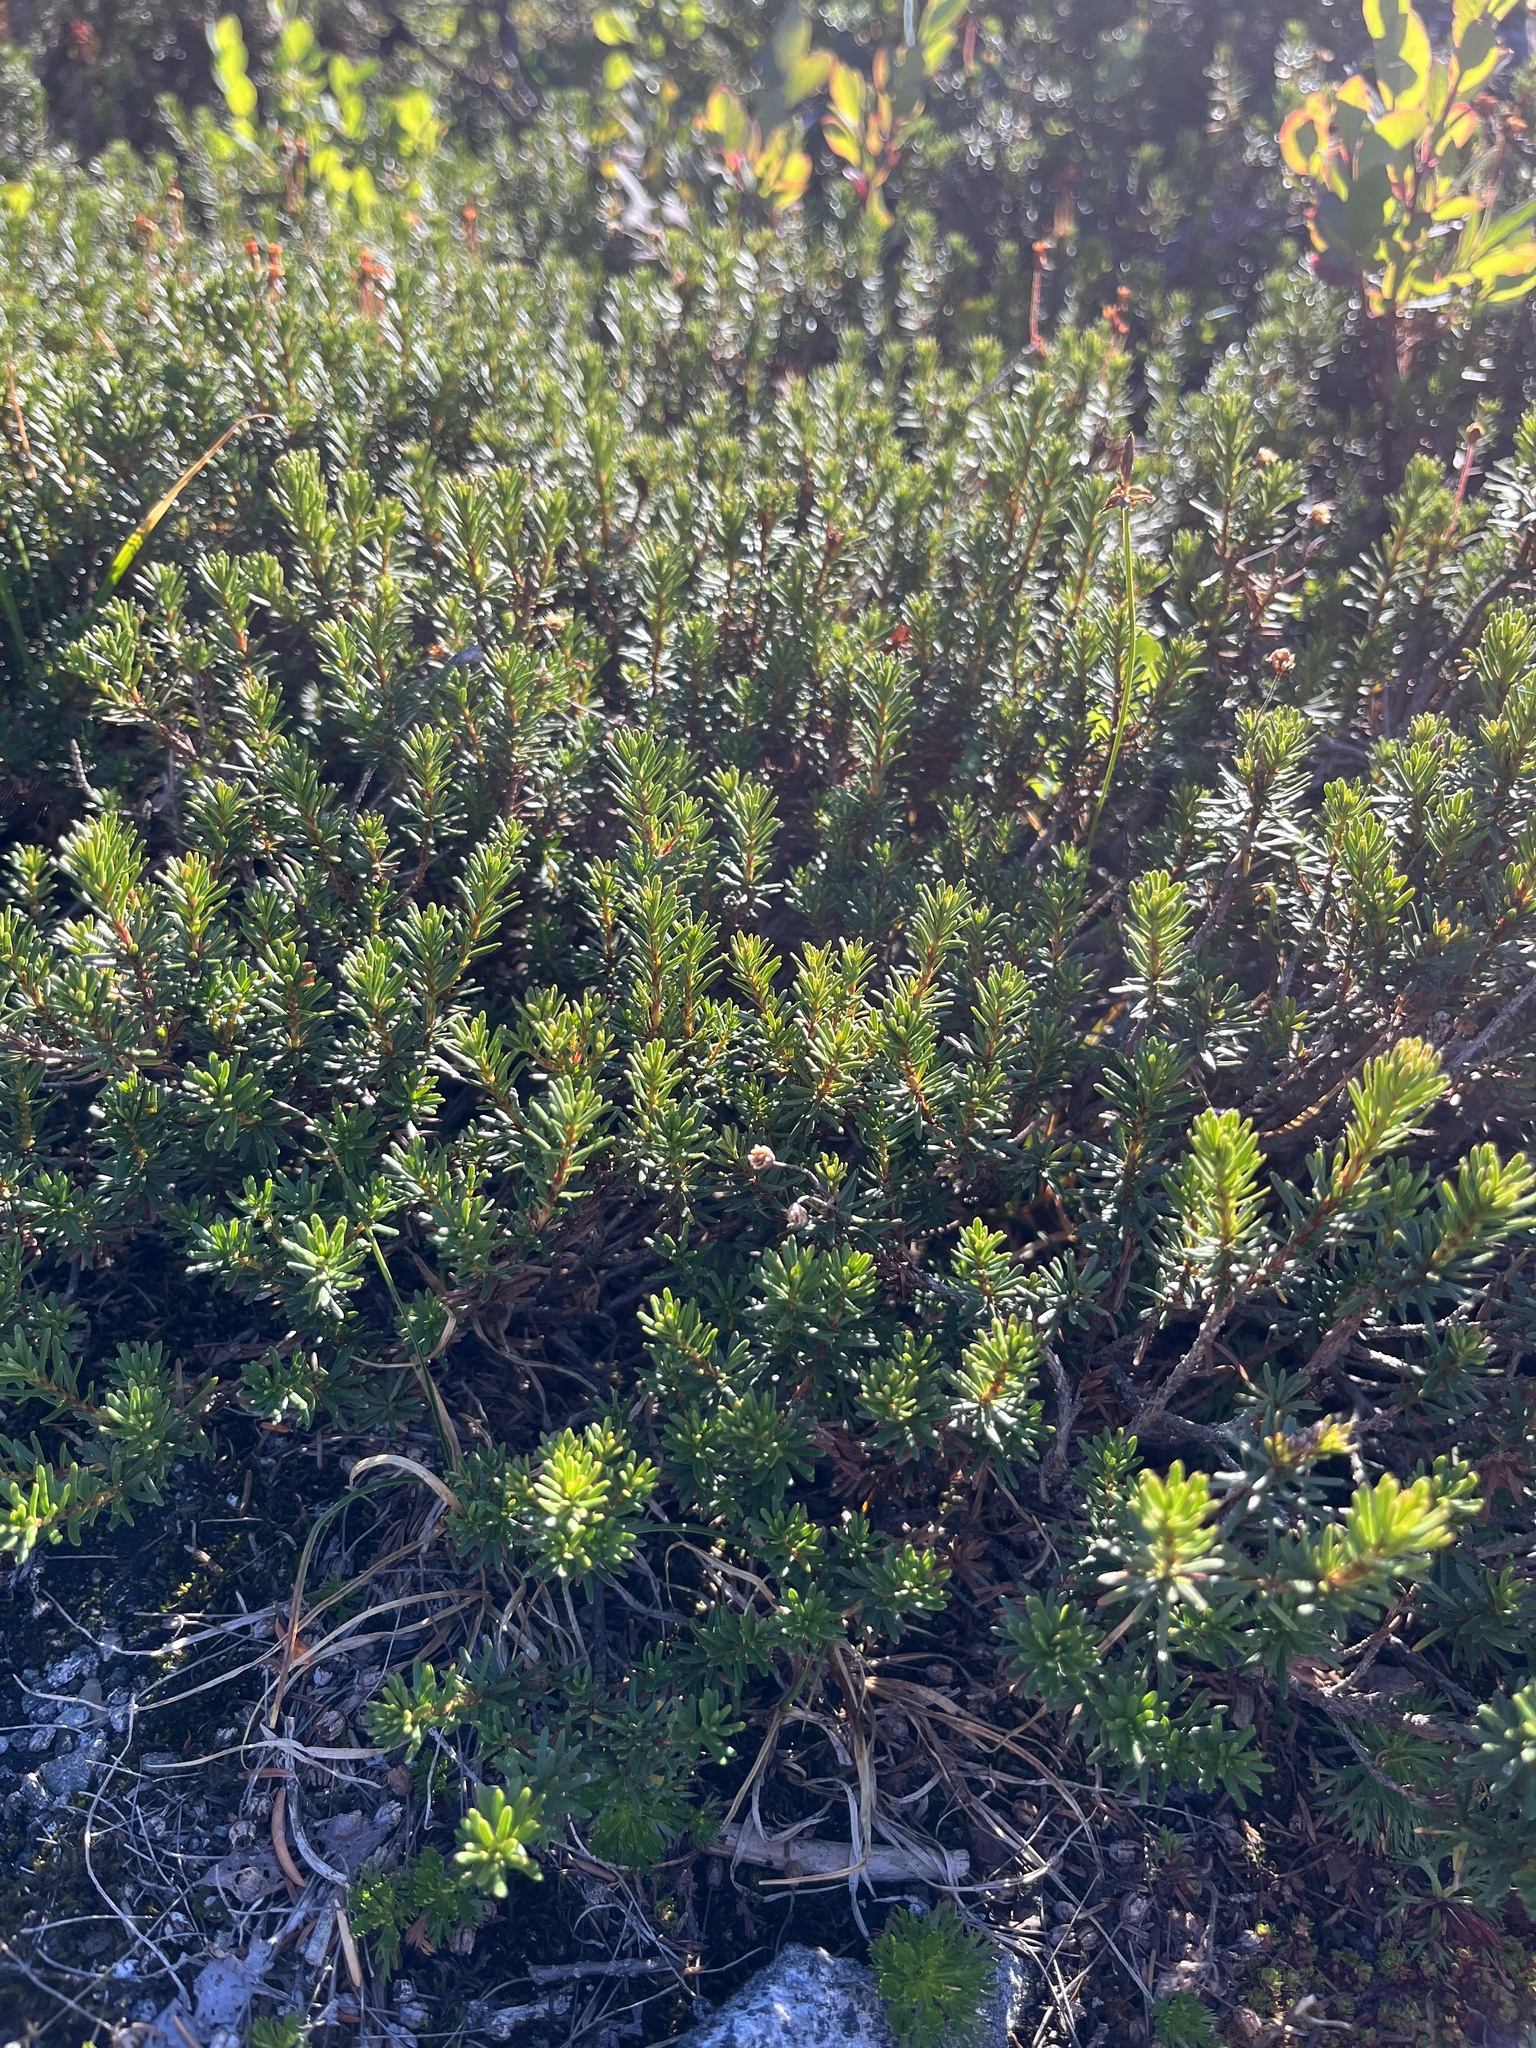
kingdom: Plantae
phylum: Tracheophyta
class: Magnoliopsida
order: Ericales
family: Ericaceae
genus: Phyllodoce
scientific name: Phyllodoce empetriformis
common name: Pink mountain heather
